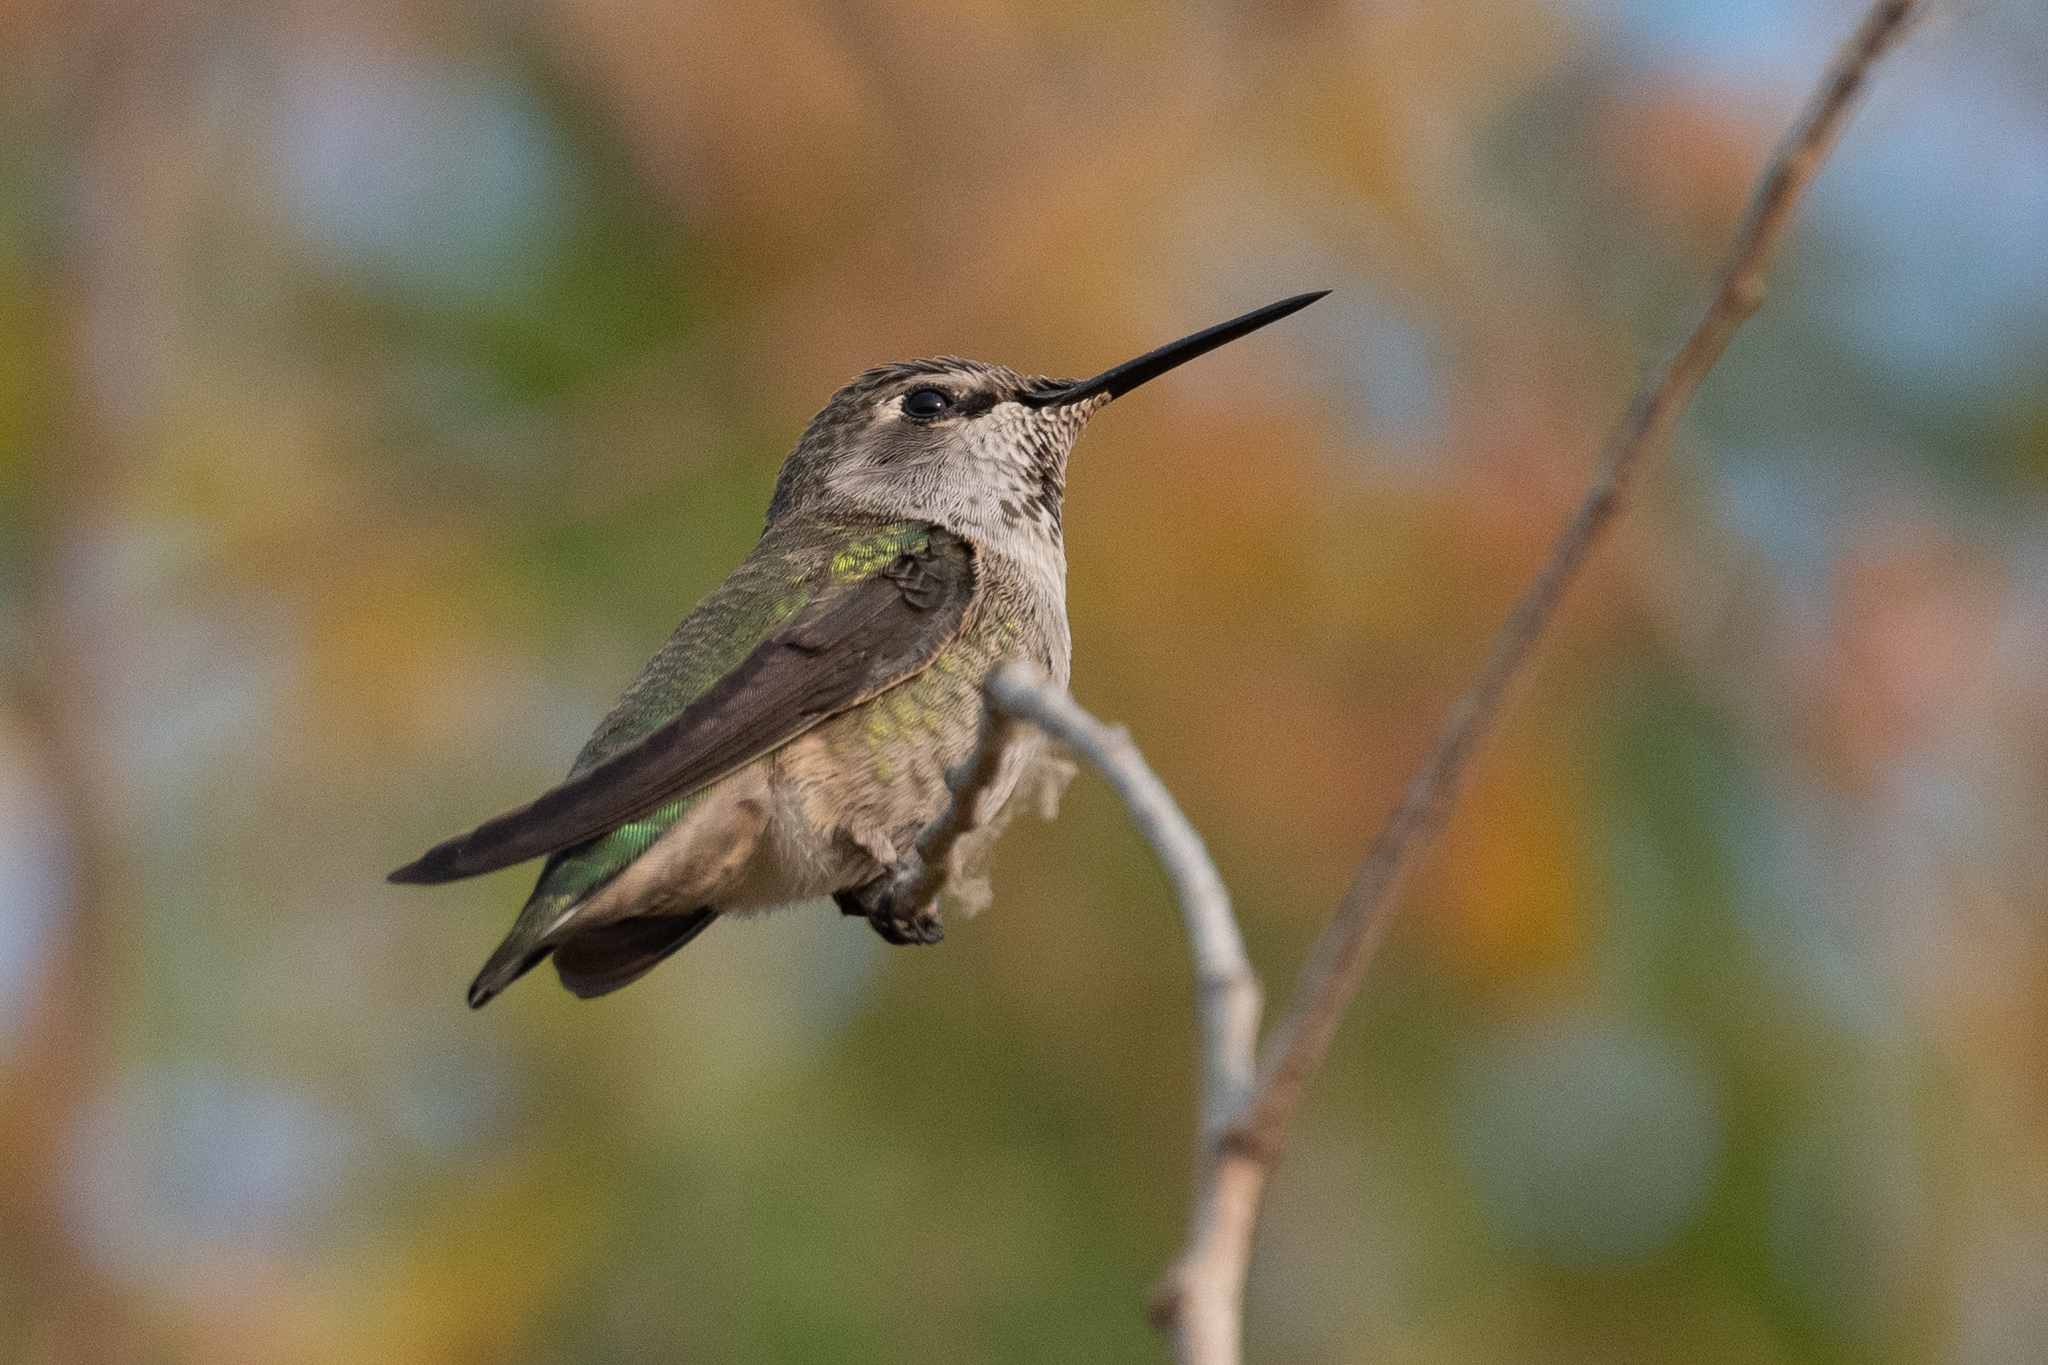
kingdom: Animalia
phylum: Chordata
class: Aves
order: Apodiformes
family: Trochilidae
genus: Calypte
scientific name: Calypte anna
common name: Anna's hummingbird
